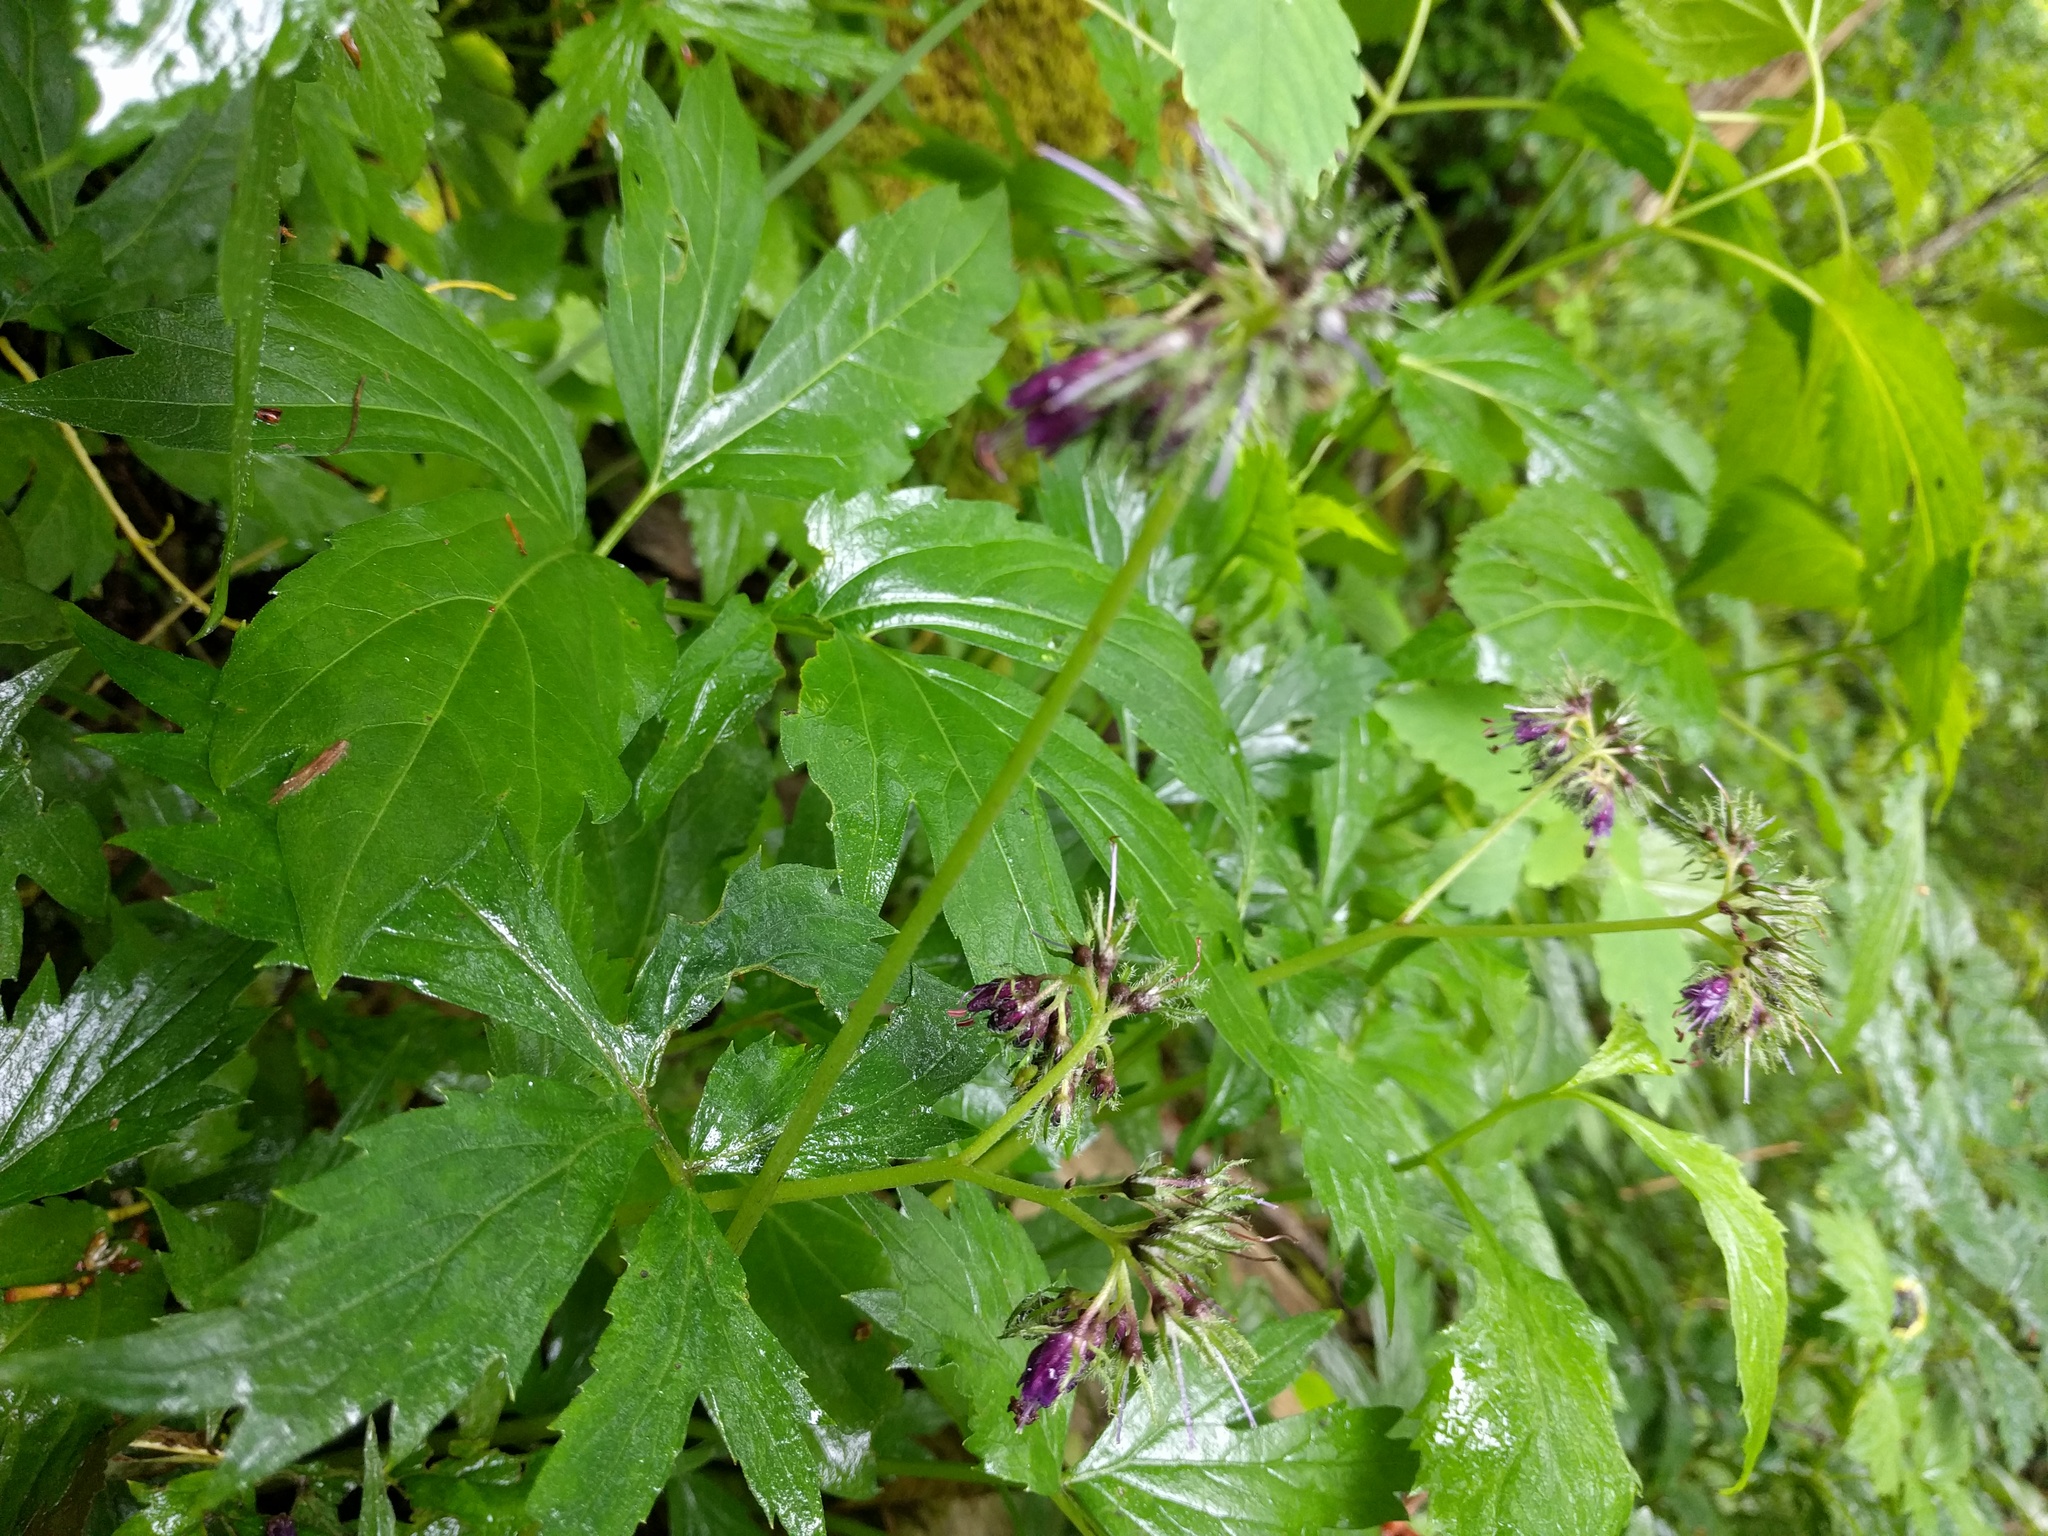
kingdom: Plantae
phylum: Tracheophyta
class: Magnoliopsida
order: Boraginales
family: Hydrophyllaceae
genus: Hydrophyllum
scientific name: Hydrophyllum virginianum
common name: Virginia waterleaf
